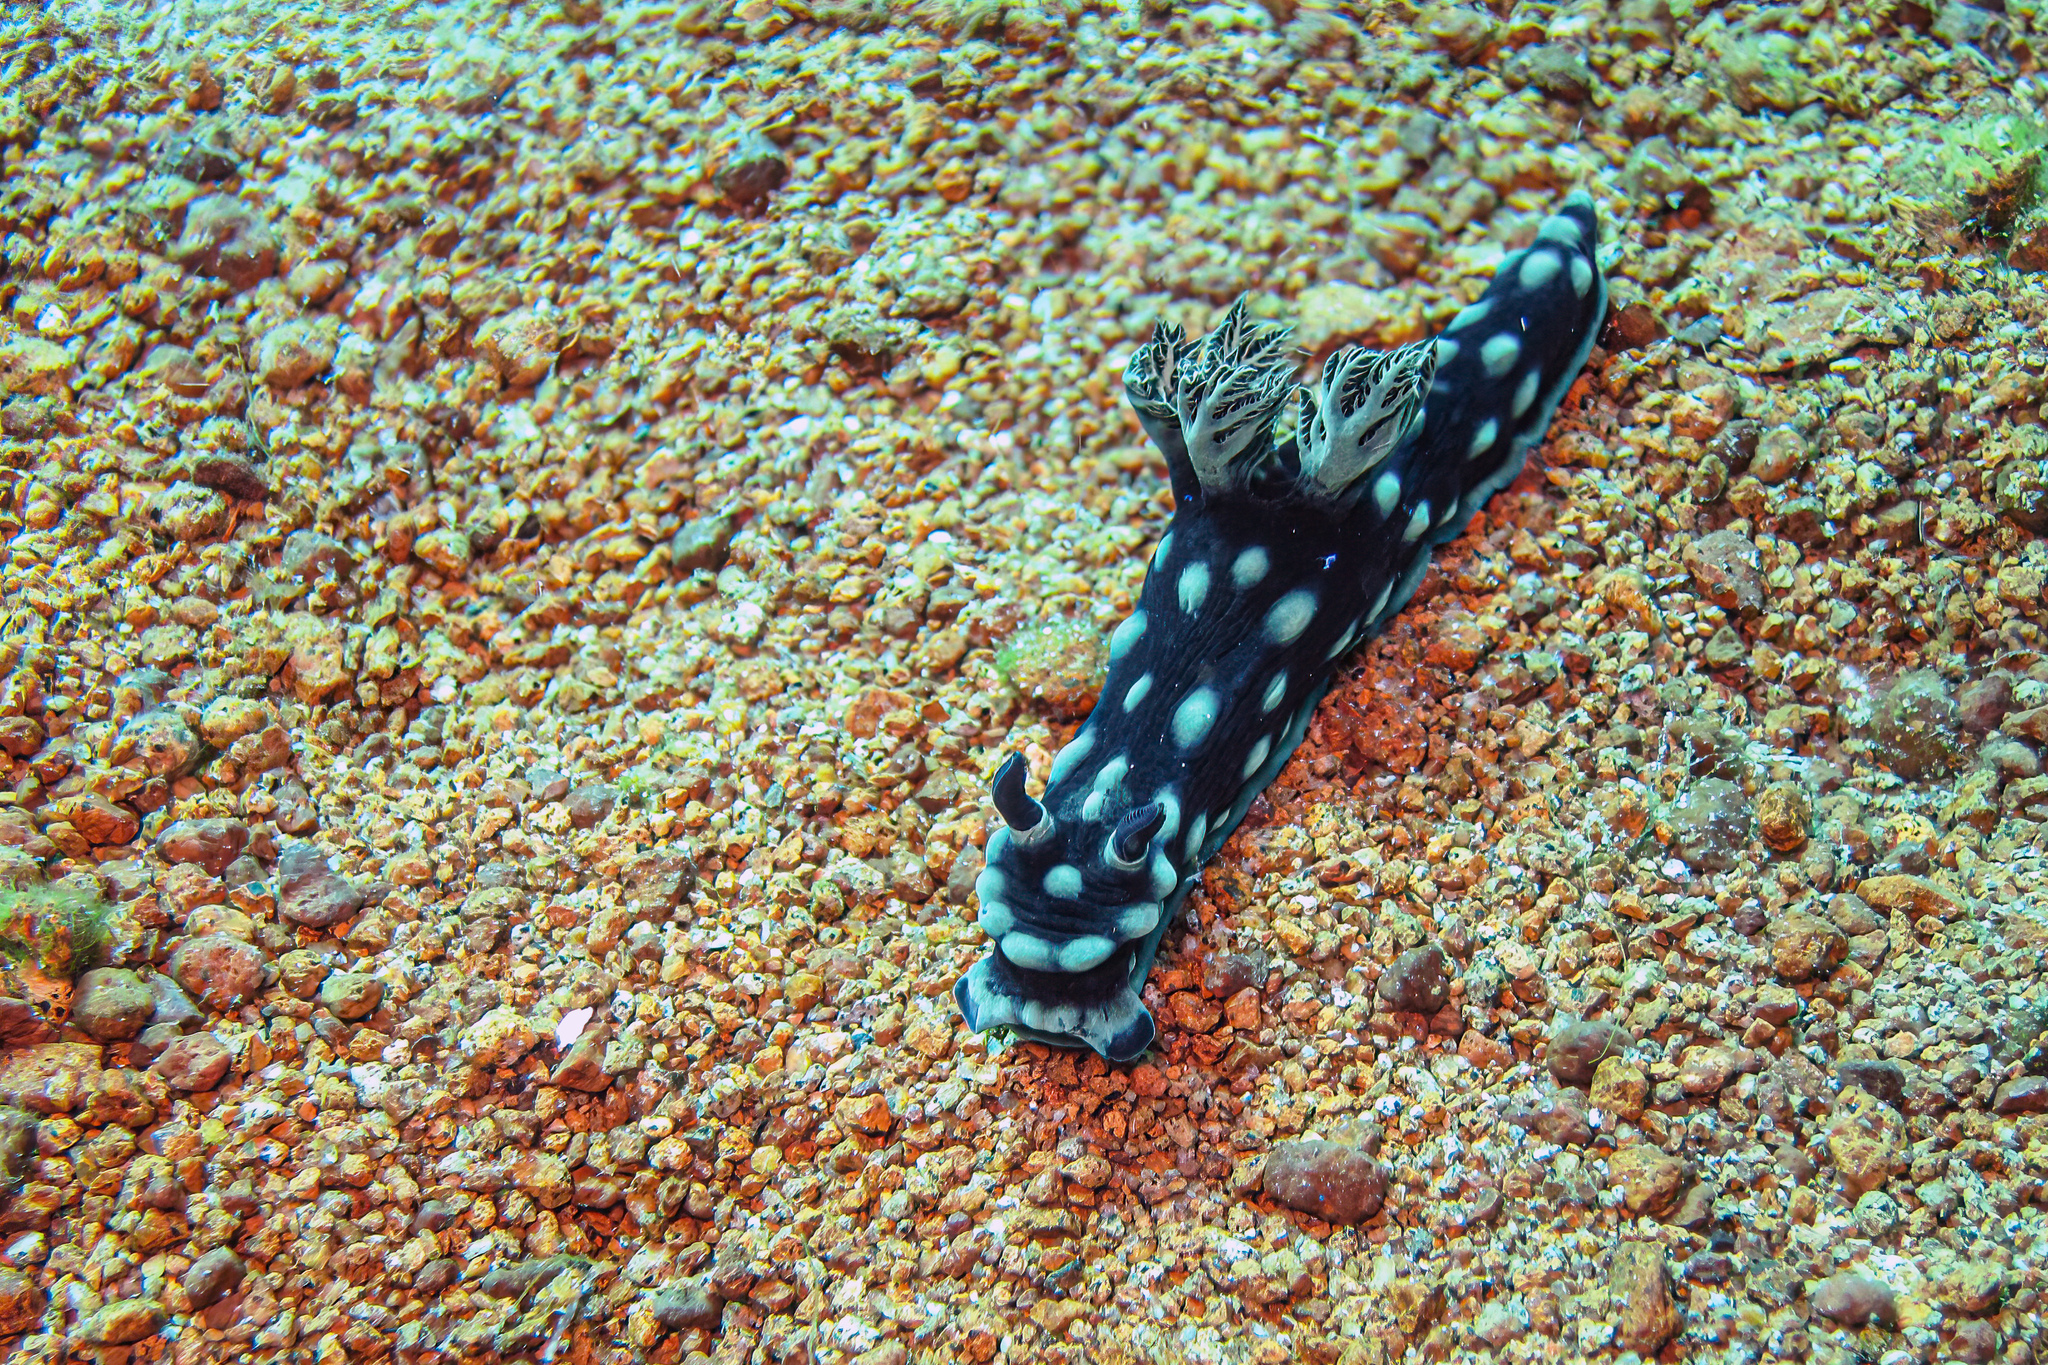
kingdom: Animalia
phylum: Mollusca
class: Gastropoda
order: Nudibranchia
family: Polyceridae
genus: Nembrotha
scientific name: Nembrotha cristata
